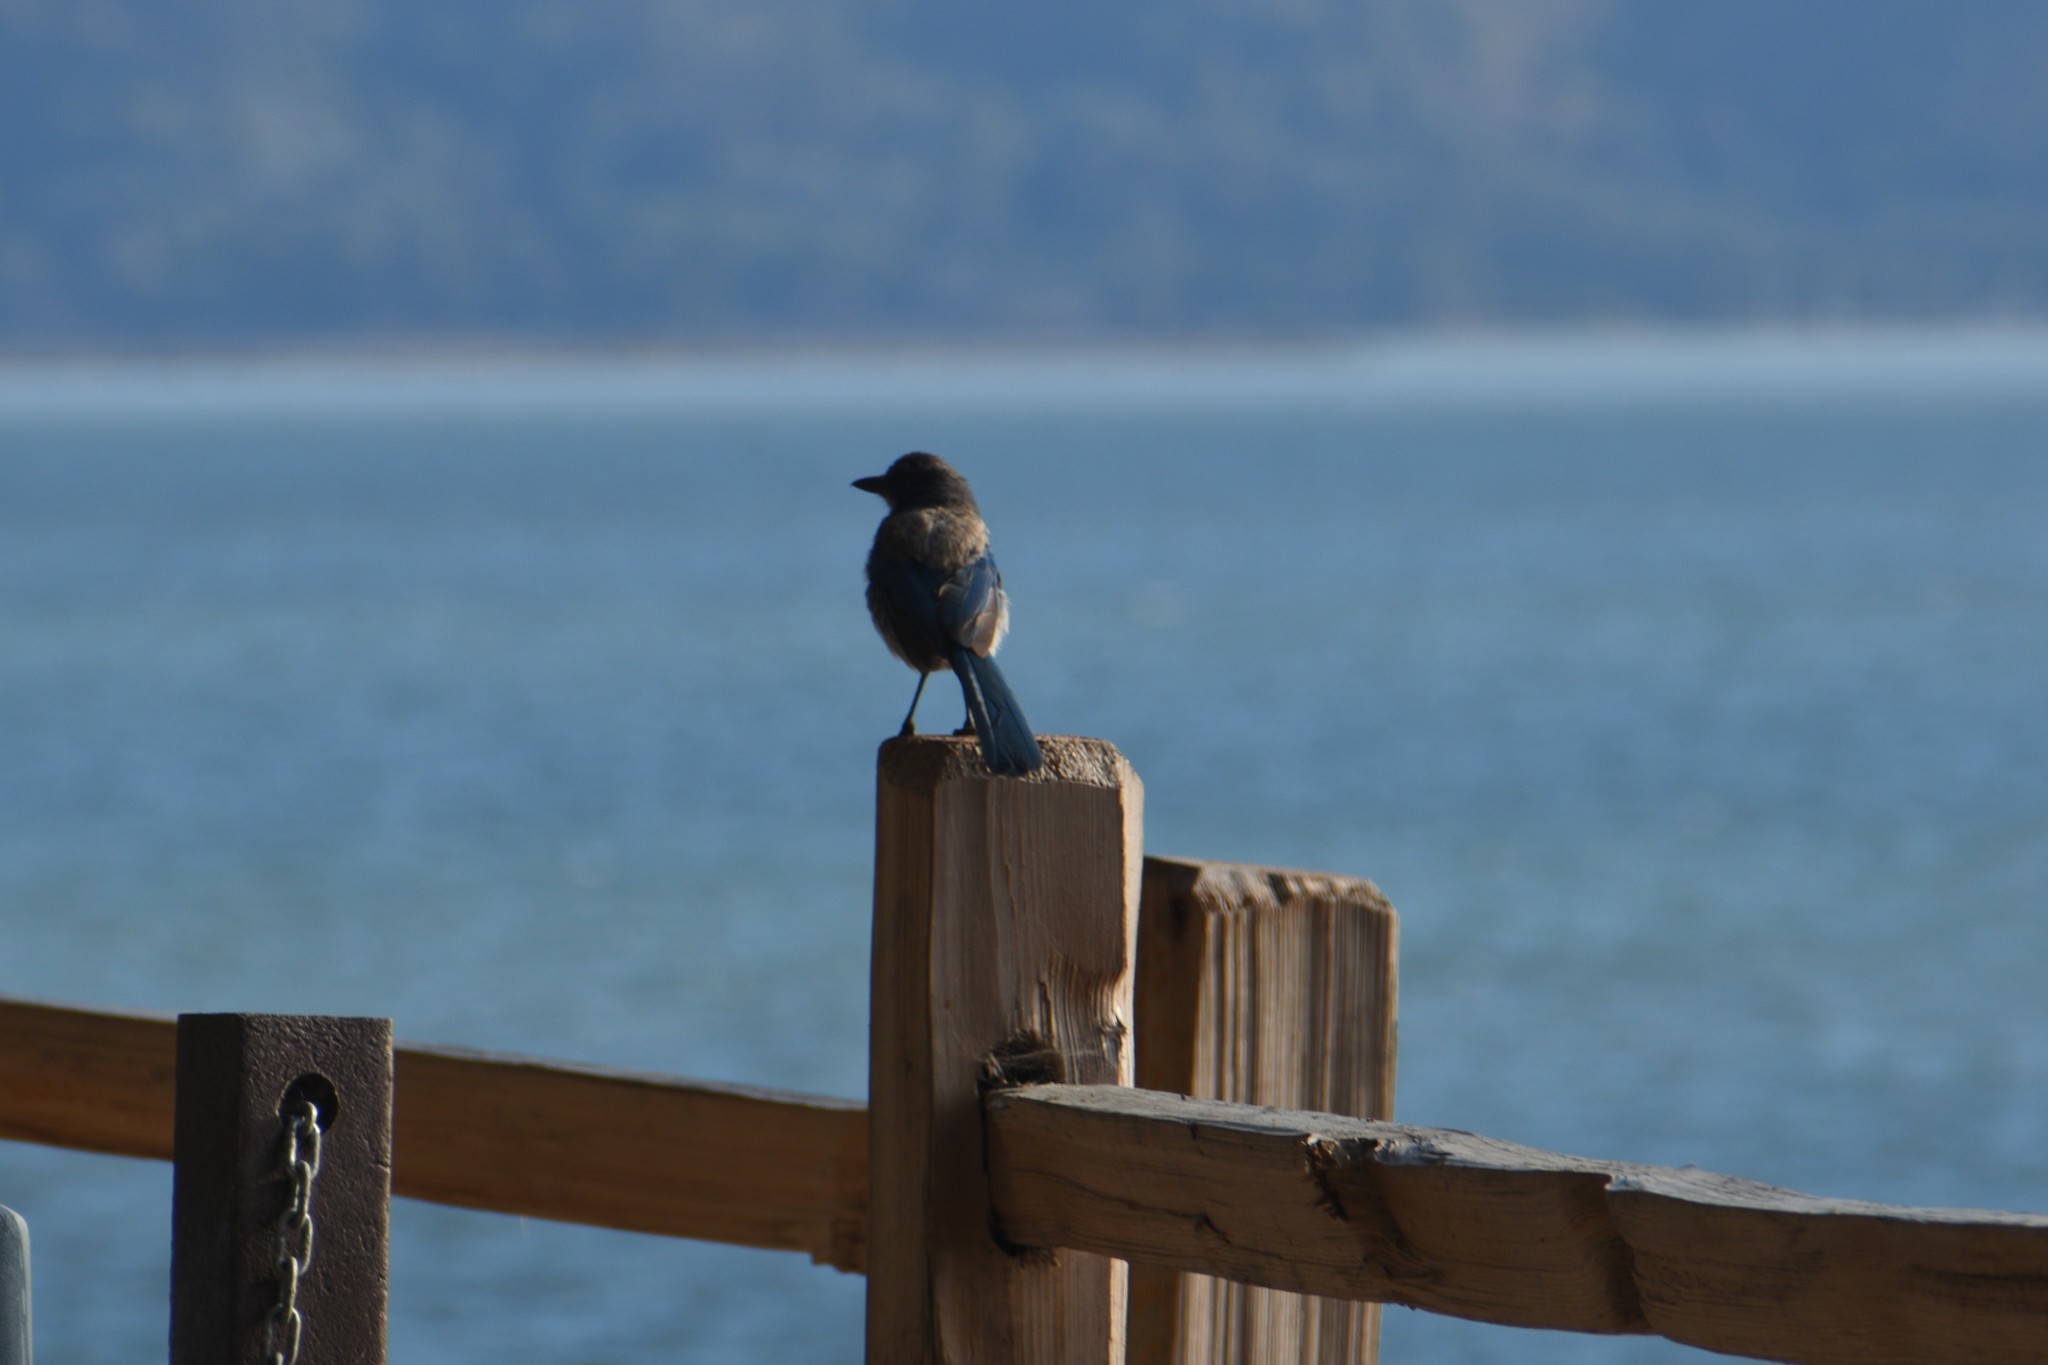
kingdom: Animalia
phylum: Chordata
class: Aves
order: Passeriformes
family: Corvidae
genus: Aphelocoma
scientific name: Aphelocoma californica
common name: California scrub-jay
